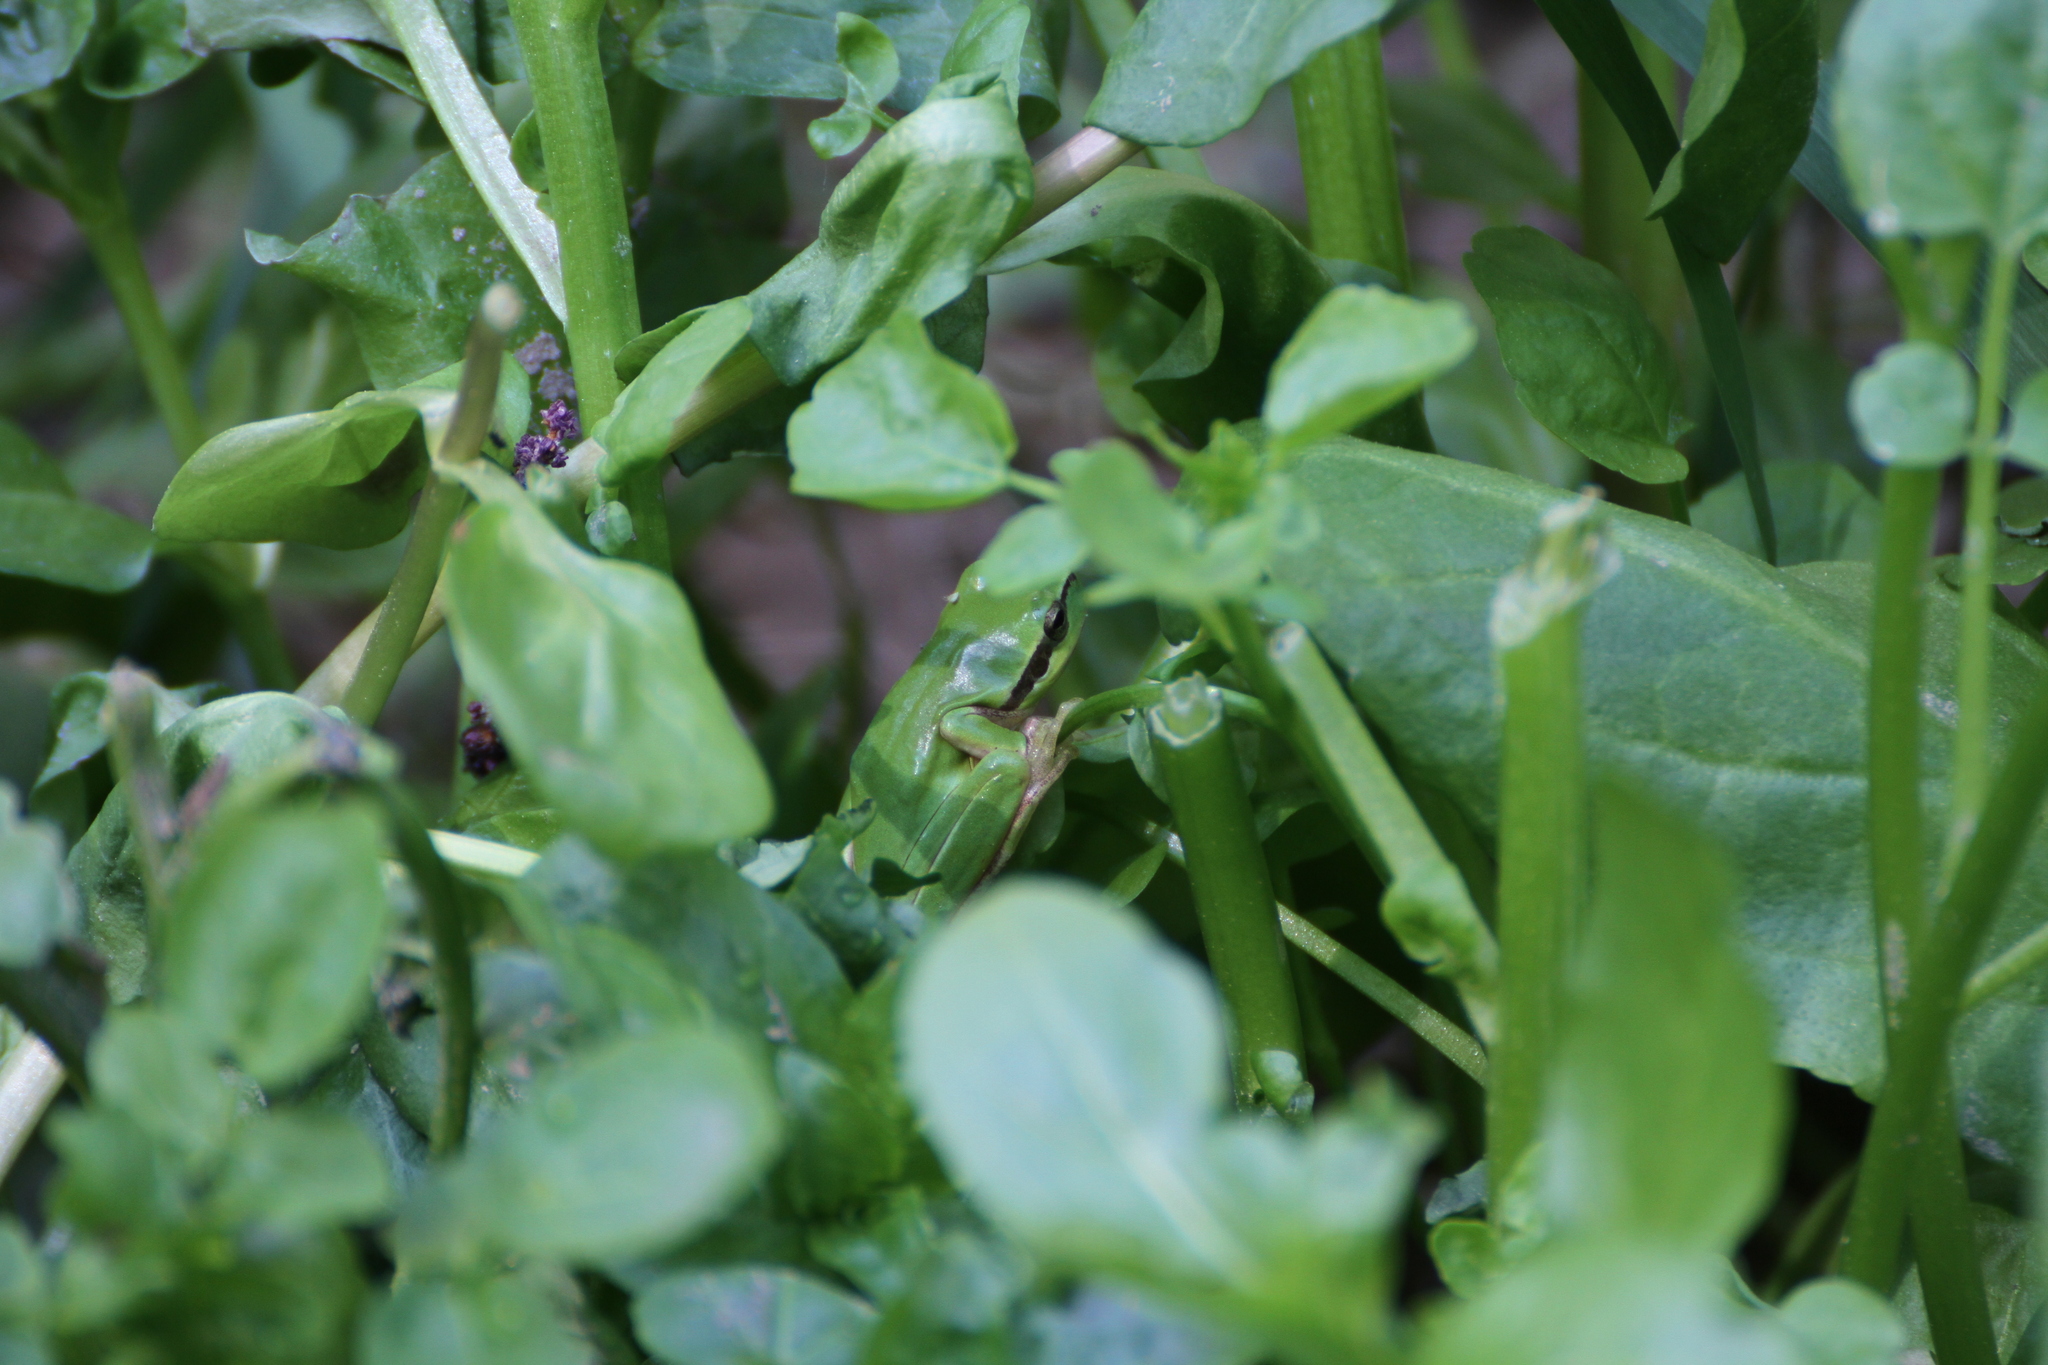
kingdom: Animalia
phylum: Chordata
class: Amphibia
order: Anura
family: Hylidae
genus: Hyla
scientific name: Hyla meridionalis
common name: Stripeless tree frog
